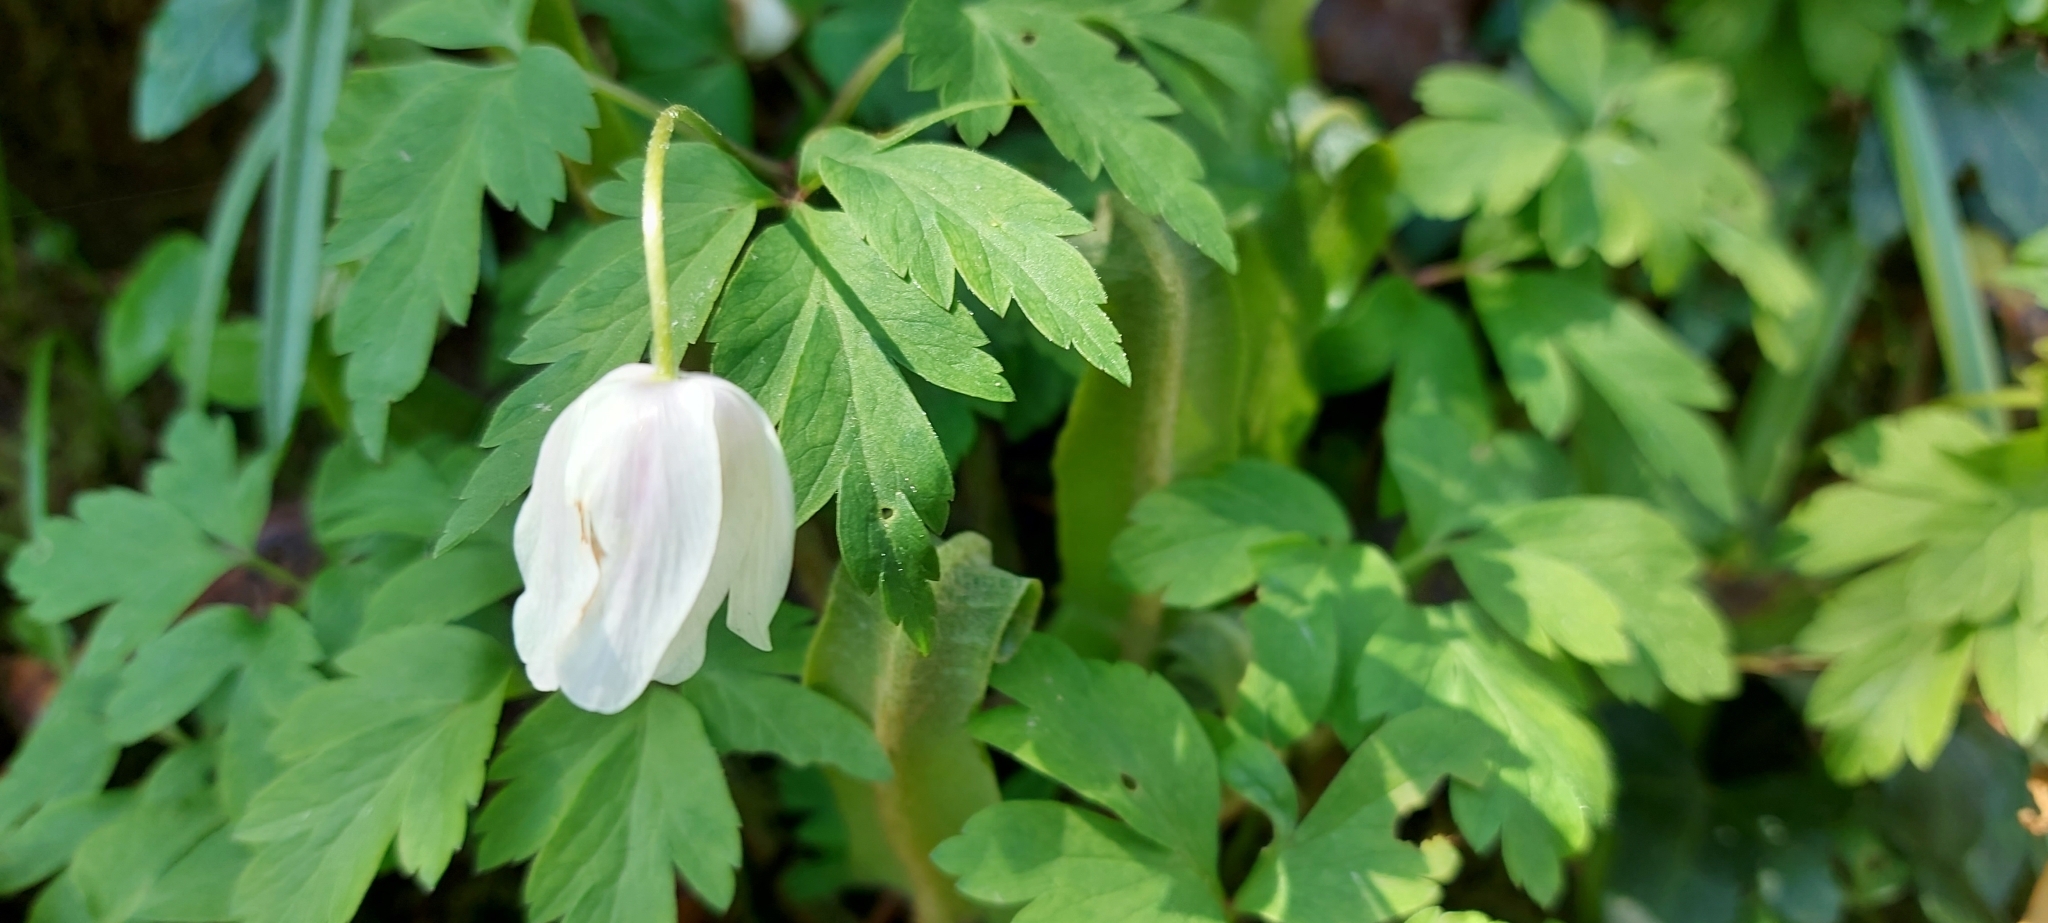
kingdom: Plantae
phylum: Tracheophyta
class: Magnoliopsida
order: Ranunculales
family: Ranunculaceae
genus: Anemone
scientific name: Anemone nemorosa
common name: Wood anemone
